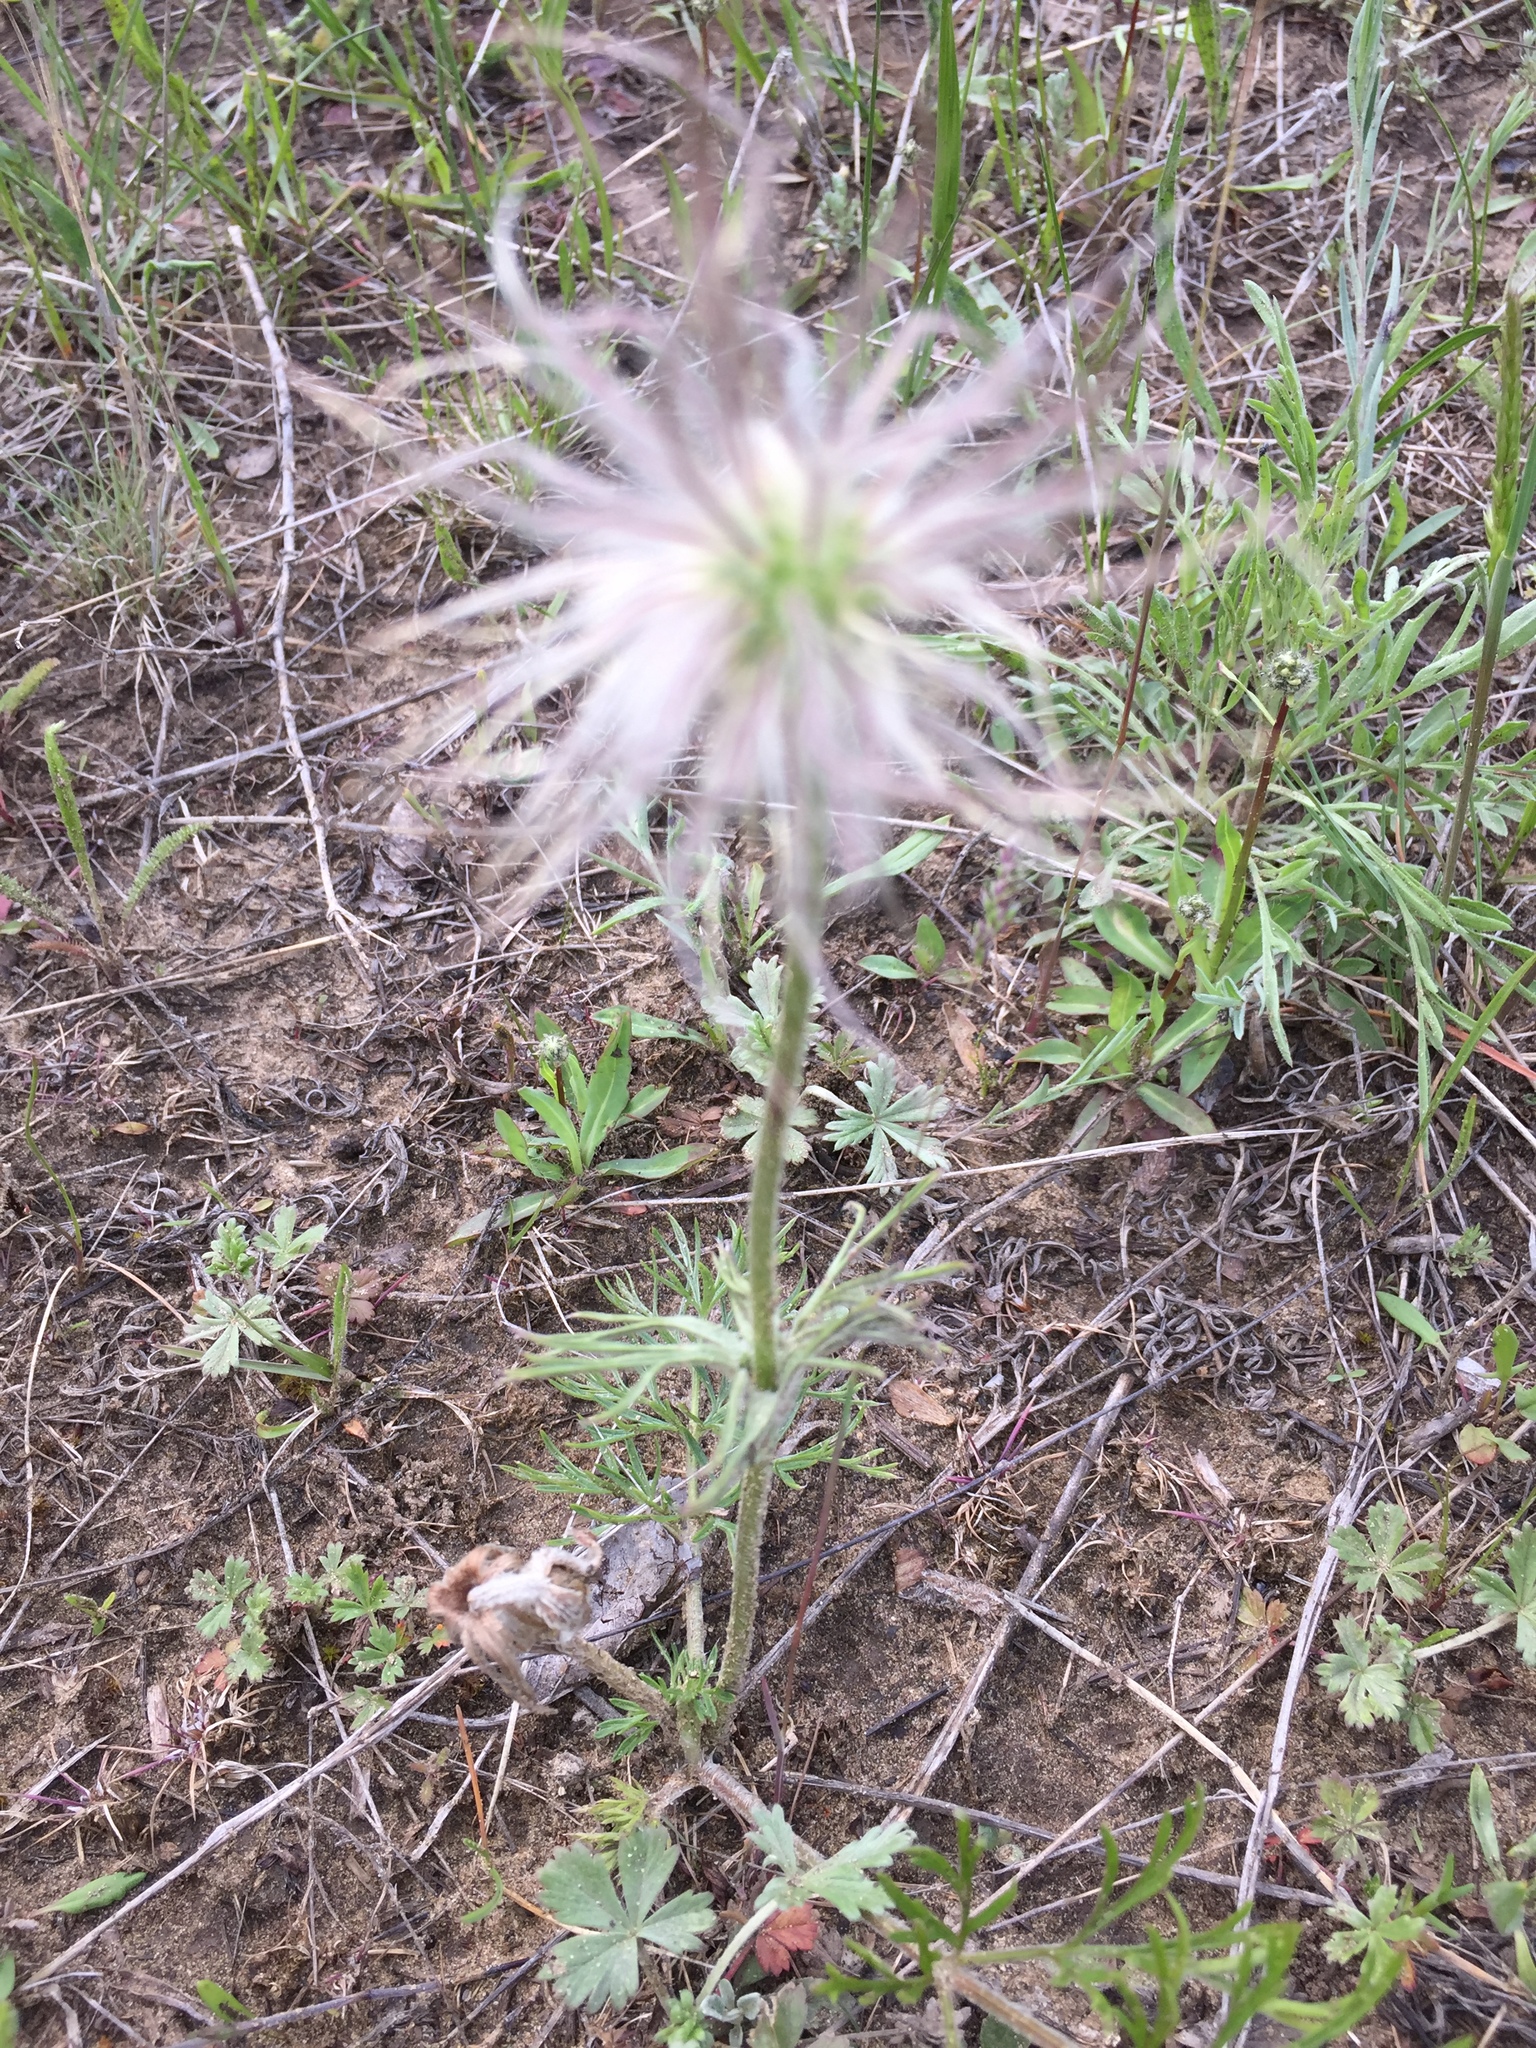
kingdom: Plantae
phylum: Tracheophyta
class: Magnoliopsida
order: Ranunculales
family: Ranunculaceae
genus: Pulsatilla
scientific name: Pulsatilla pratensis
